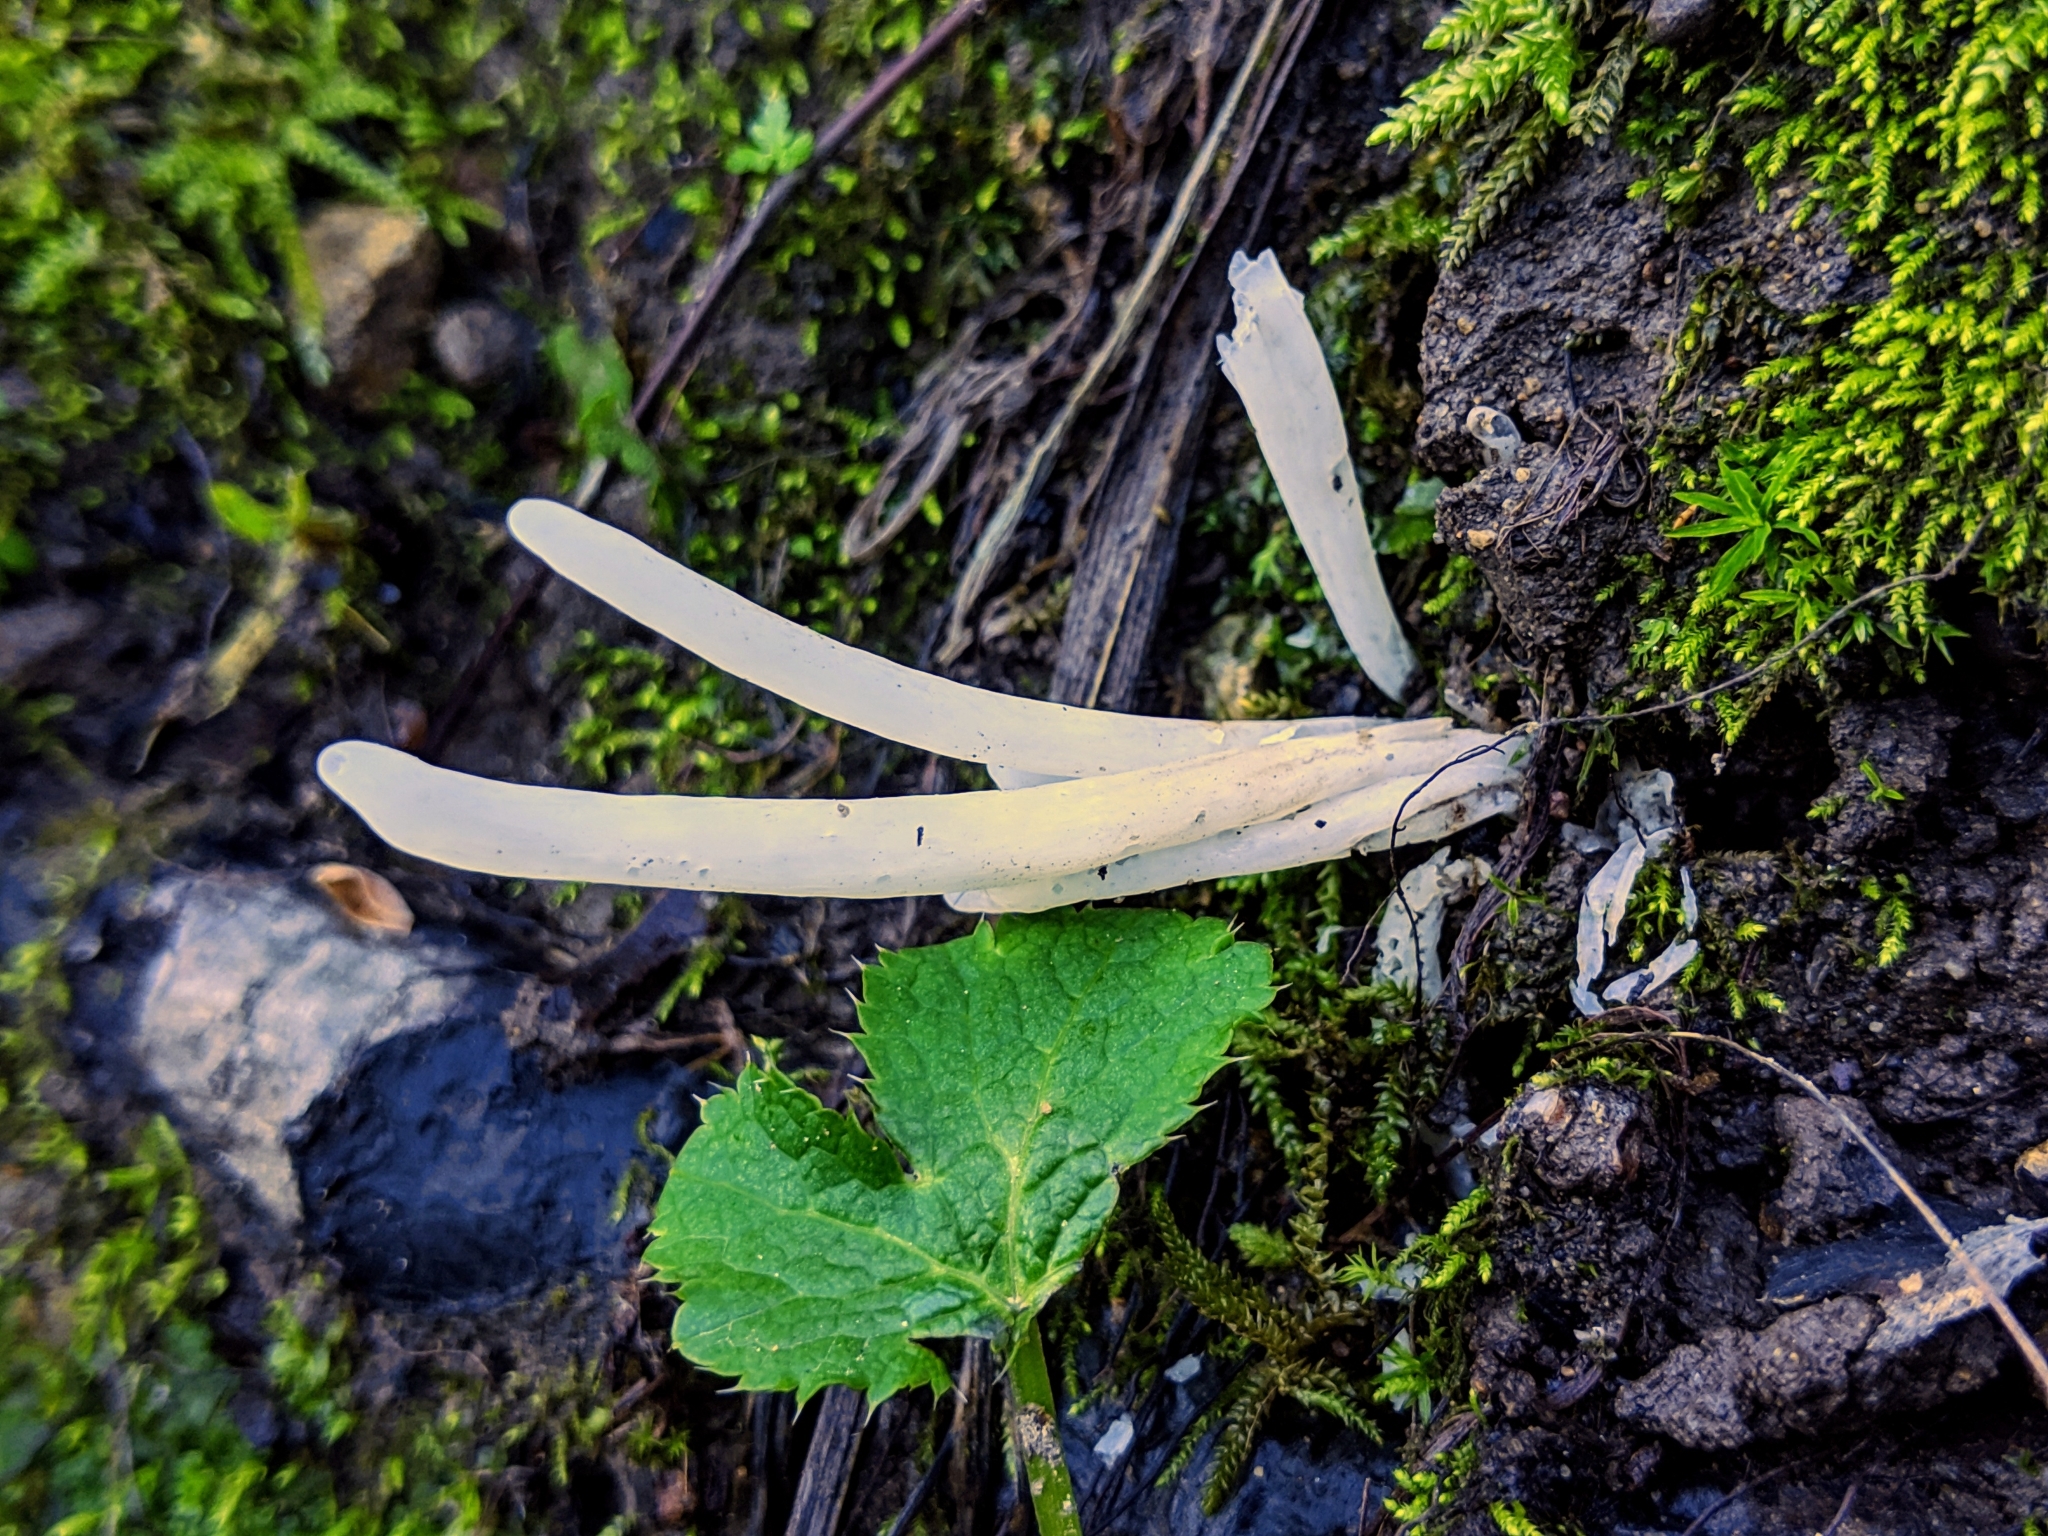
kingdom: Fungi
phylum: Basidiomycota
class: Agaricomycetes
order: Agaricales
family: Clavariaceae
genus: Clavaria
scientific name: Clavaria fragilis
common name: White spindles
